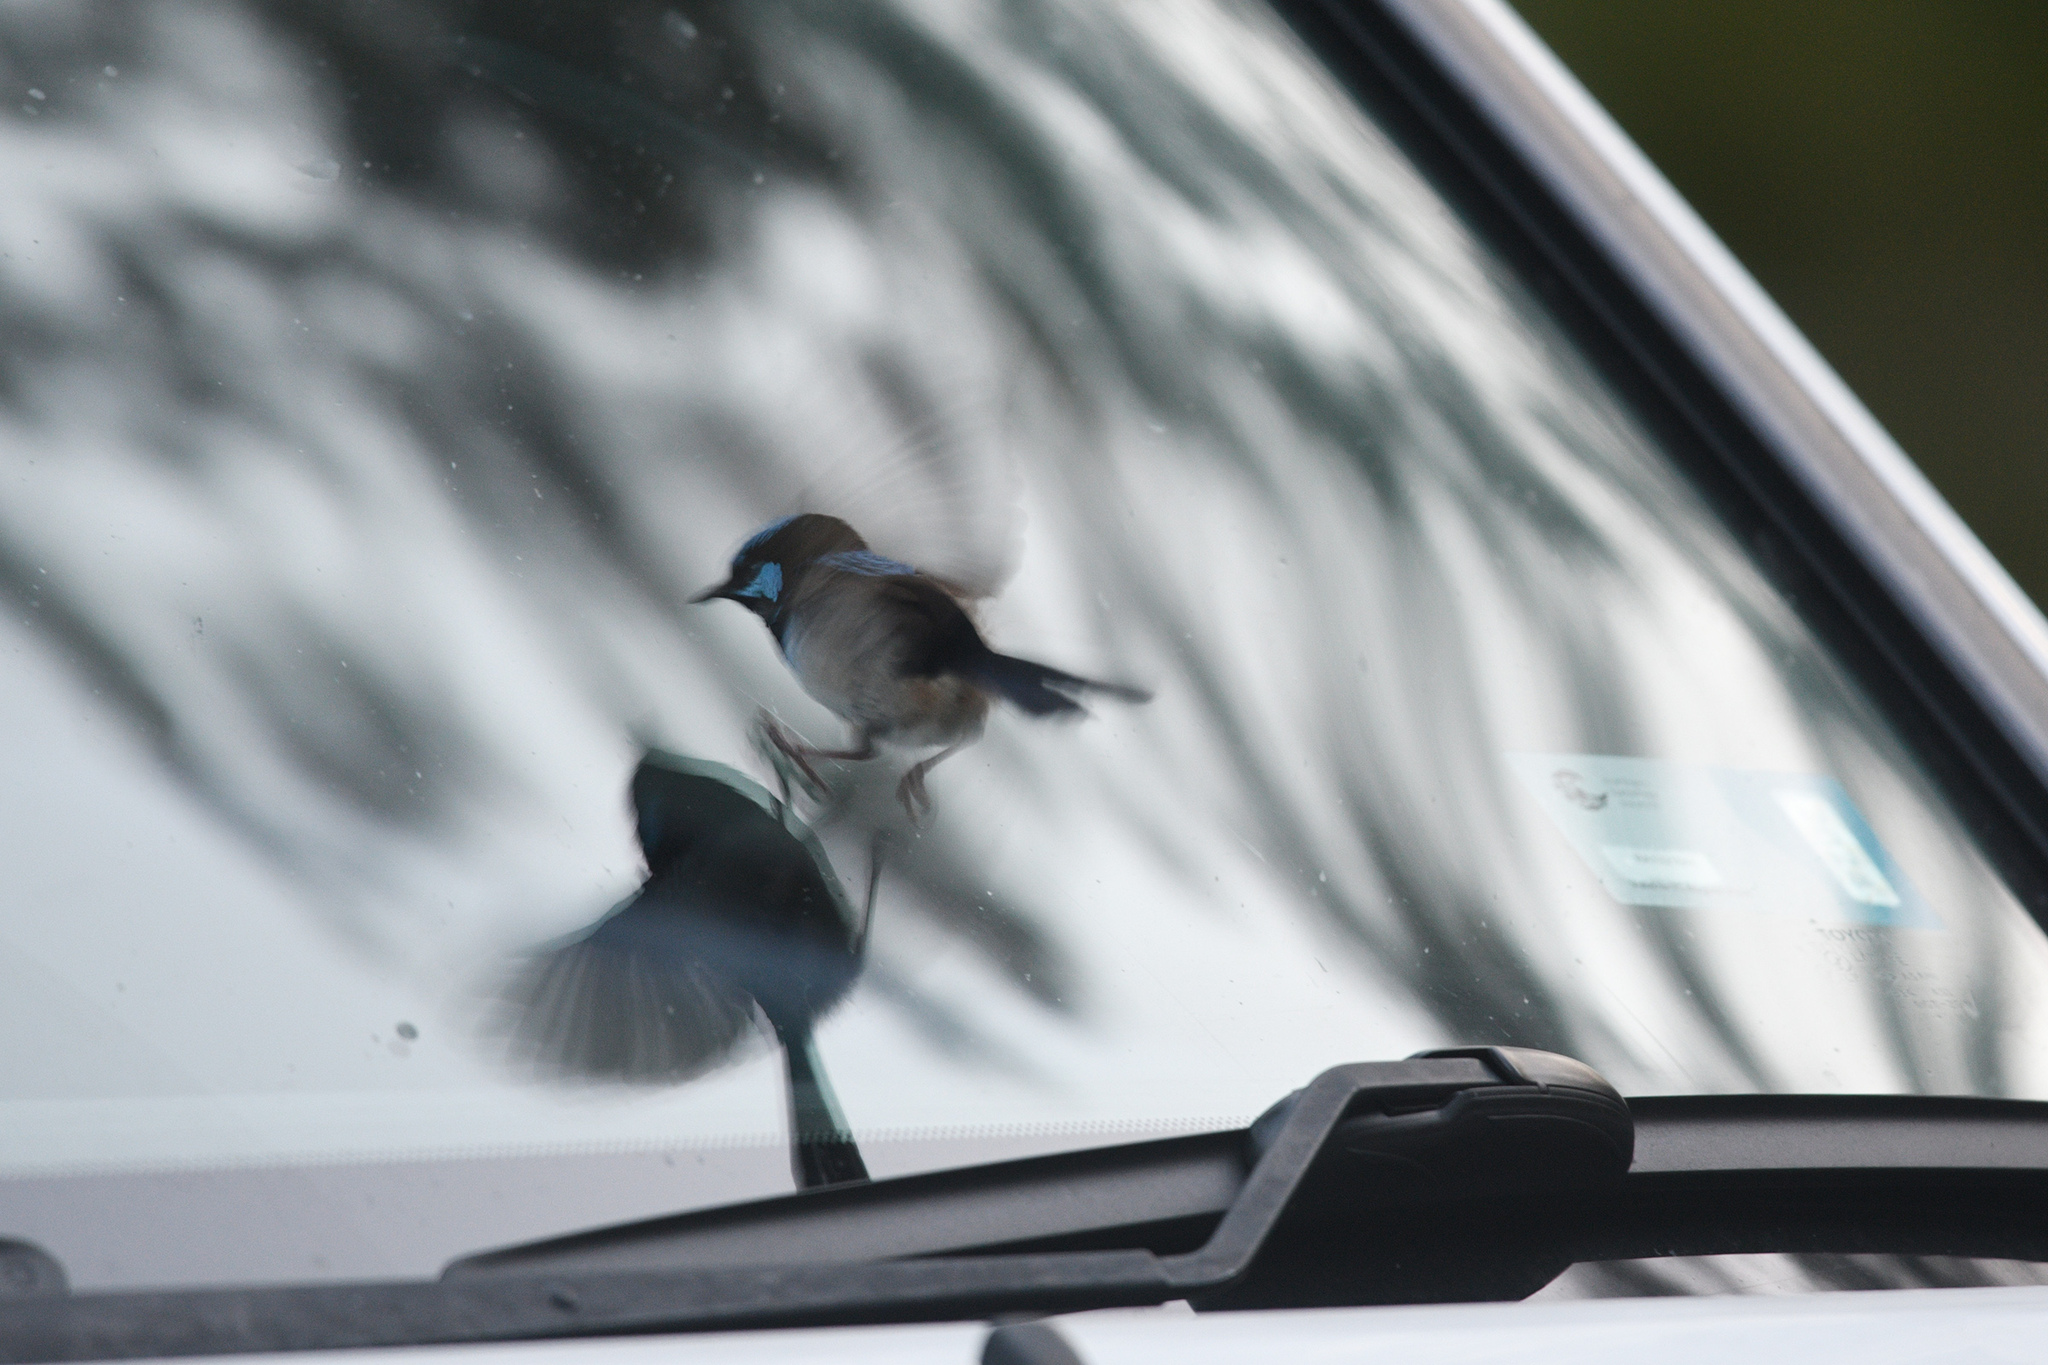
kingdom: Animalia
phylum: Chordata
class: Aves
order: Passeriformes
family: Maluridae
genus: Malurus
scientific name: Malurus cyaneus
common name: Superb fairywren
